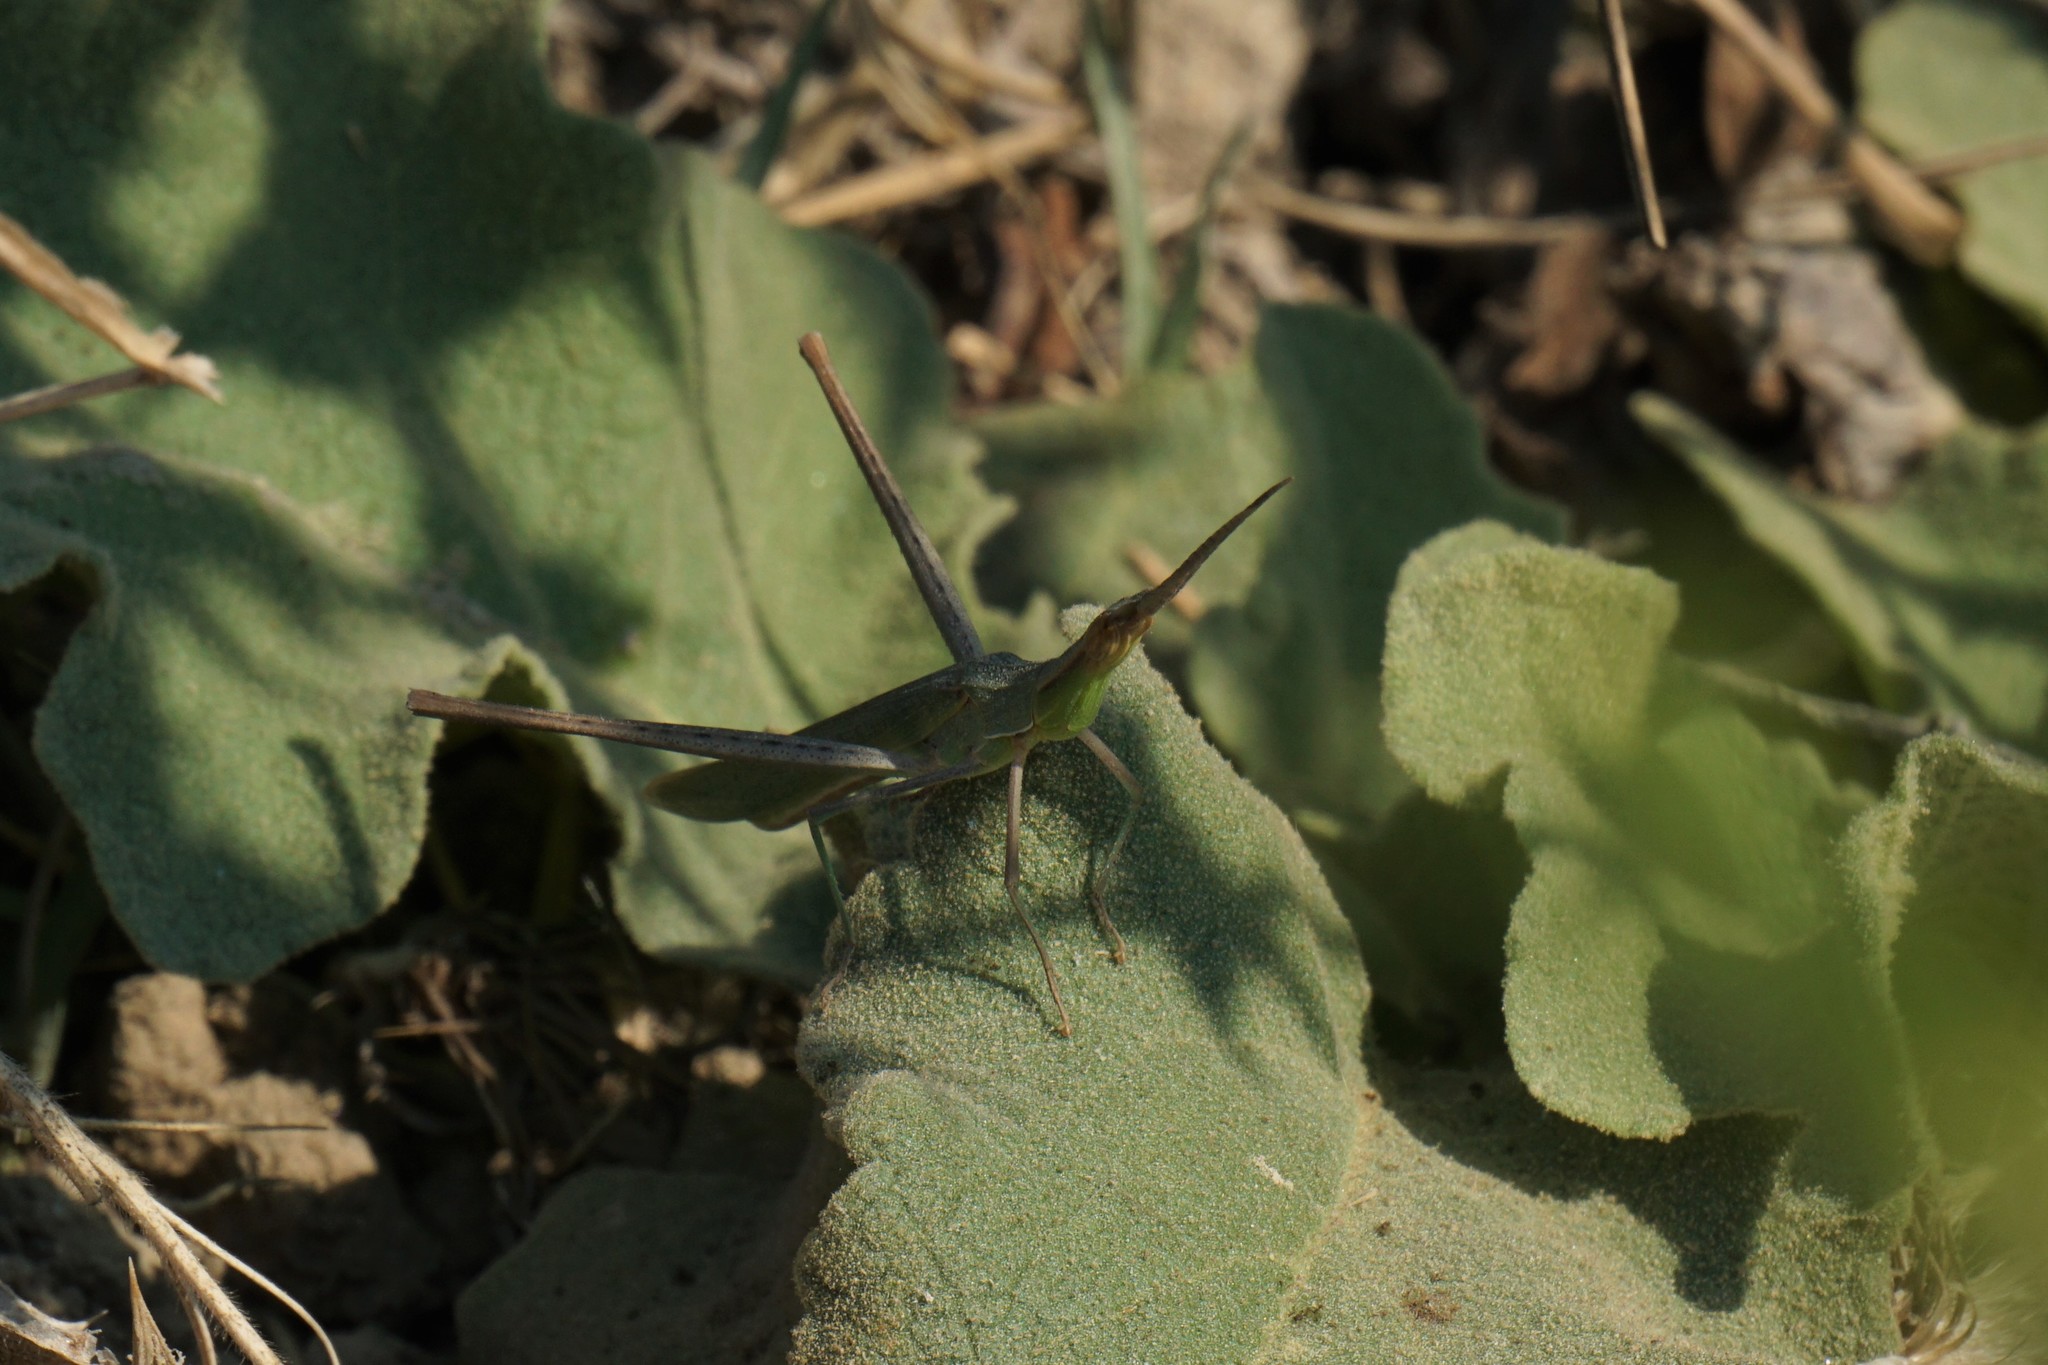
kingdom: Animalia
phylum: Arthropoda
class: Insecta
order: Orthoptera
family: Acrididae
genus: Acrida
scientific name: Acrida ungarica
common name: Common cone-headed grasshopper
